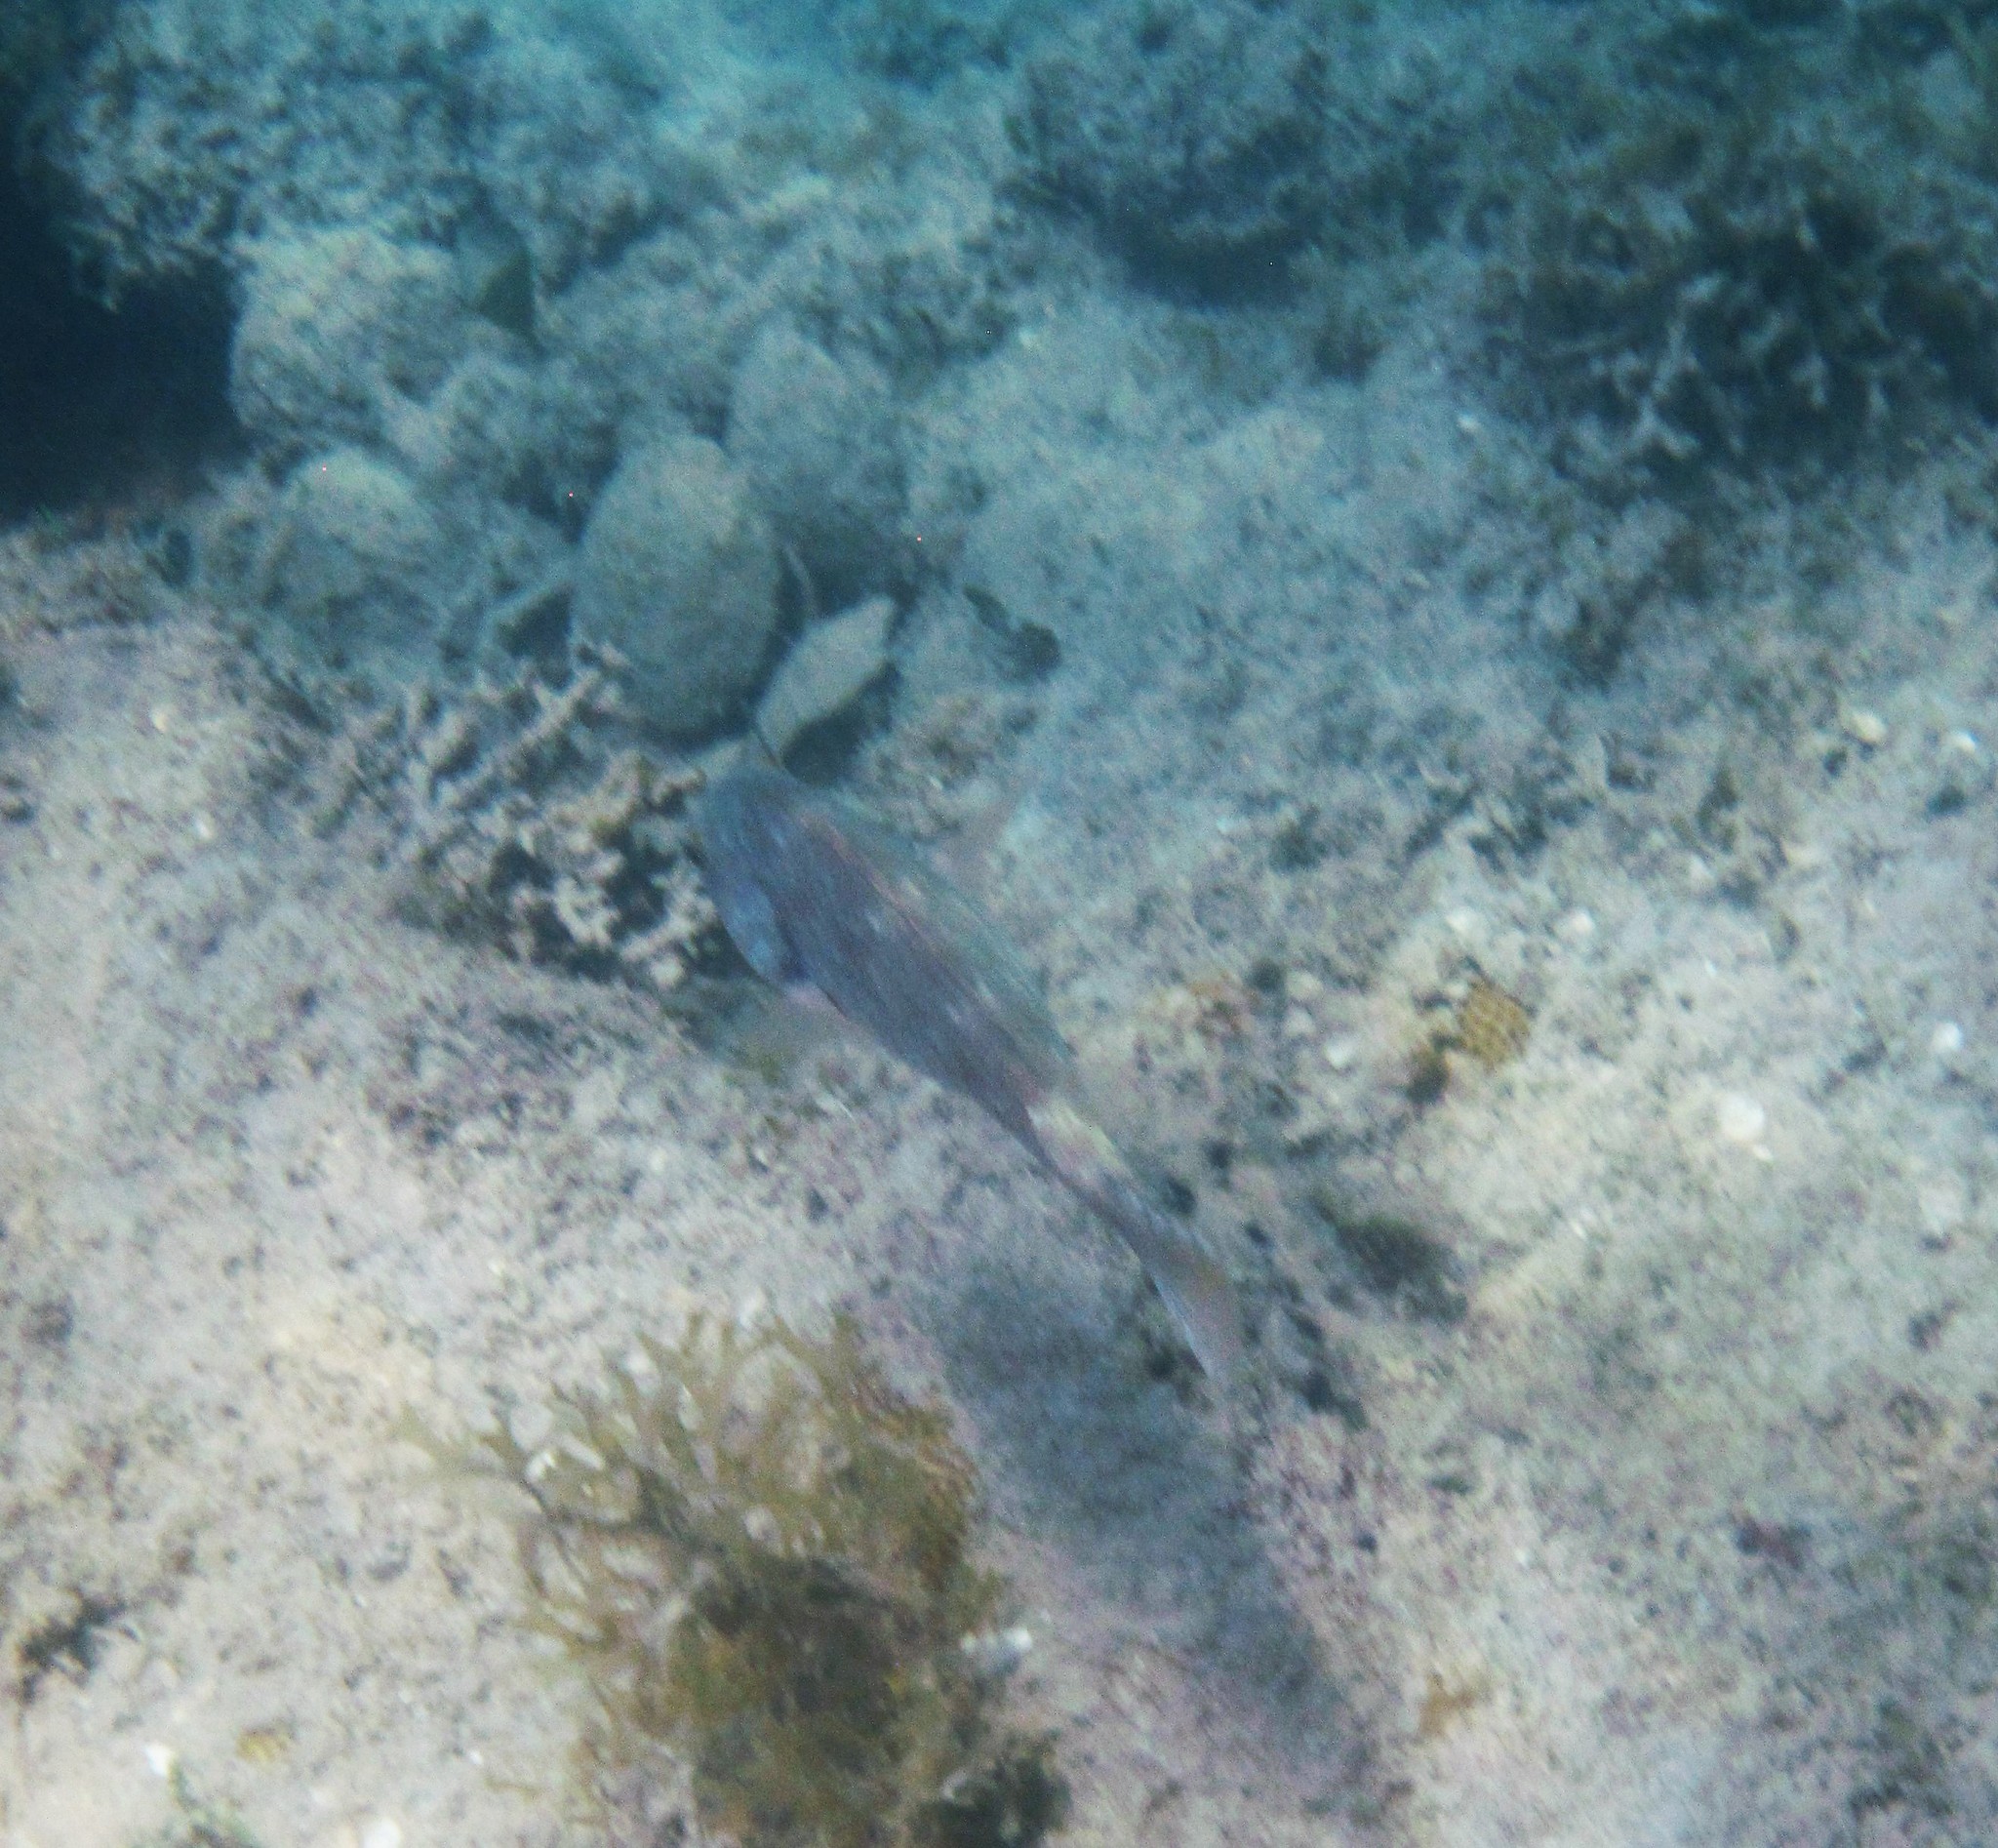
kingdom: Animalia
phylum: Chordata
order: Perciformes
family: Scaridae
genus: Sparisoma
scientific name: Sparisoma chrysopterum
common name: Redtail parrotfish
